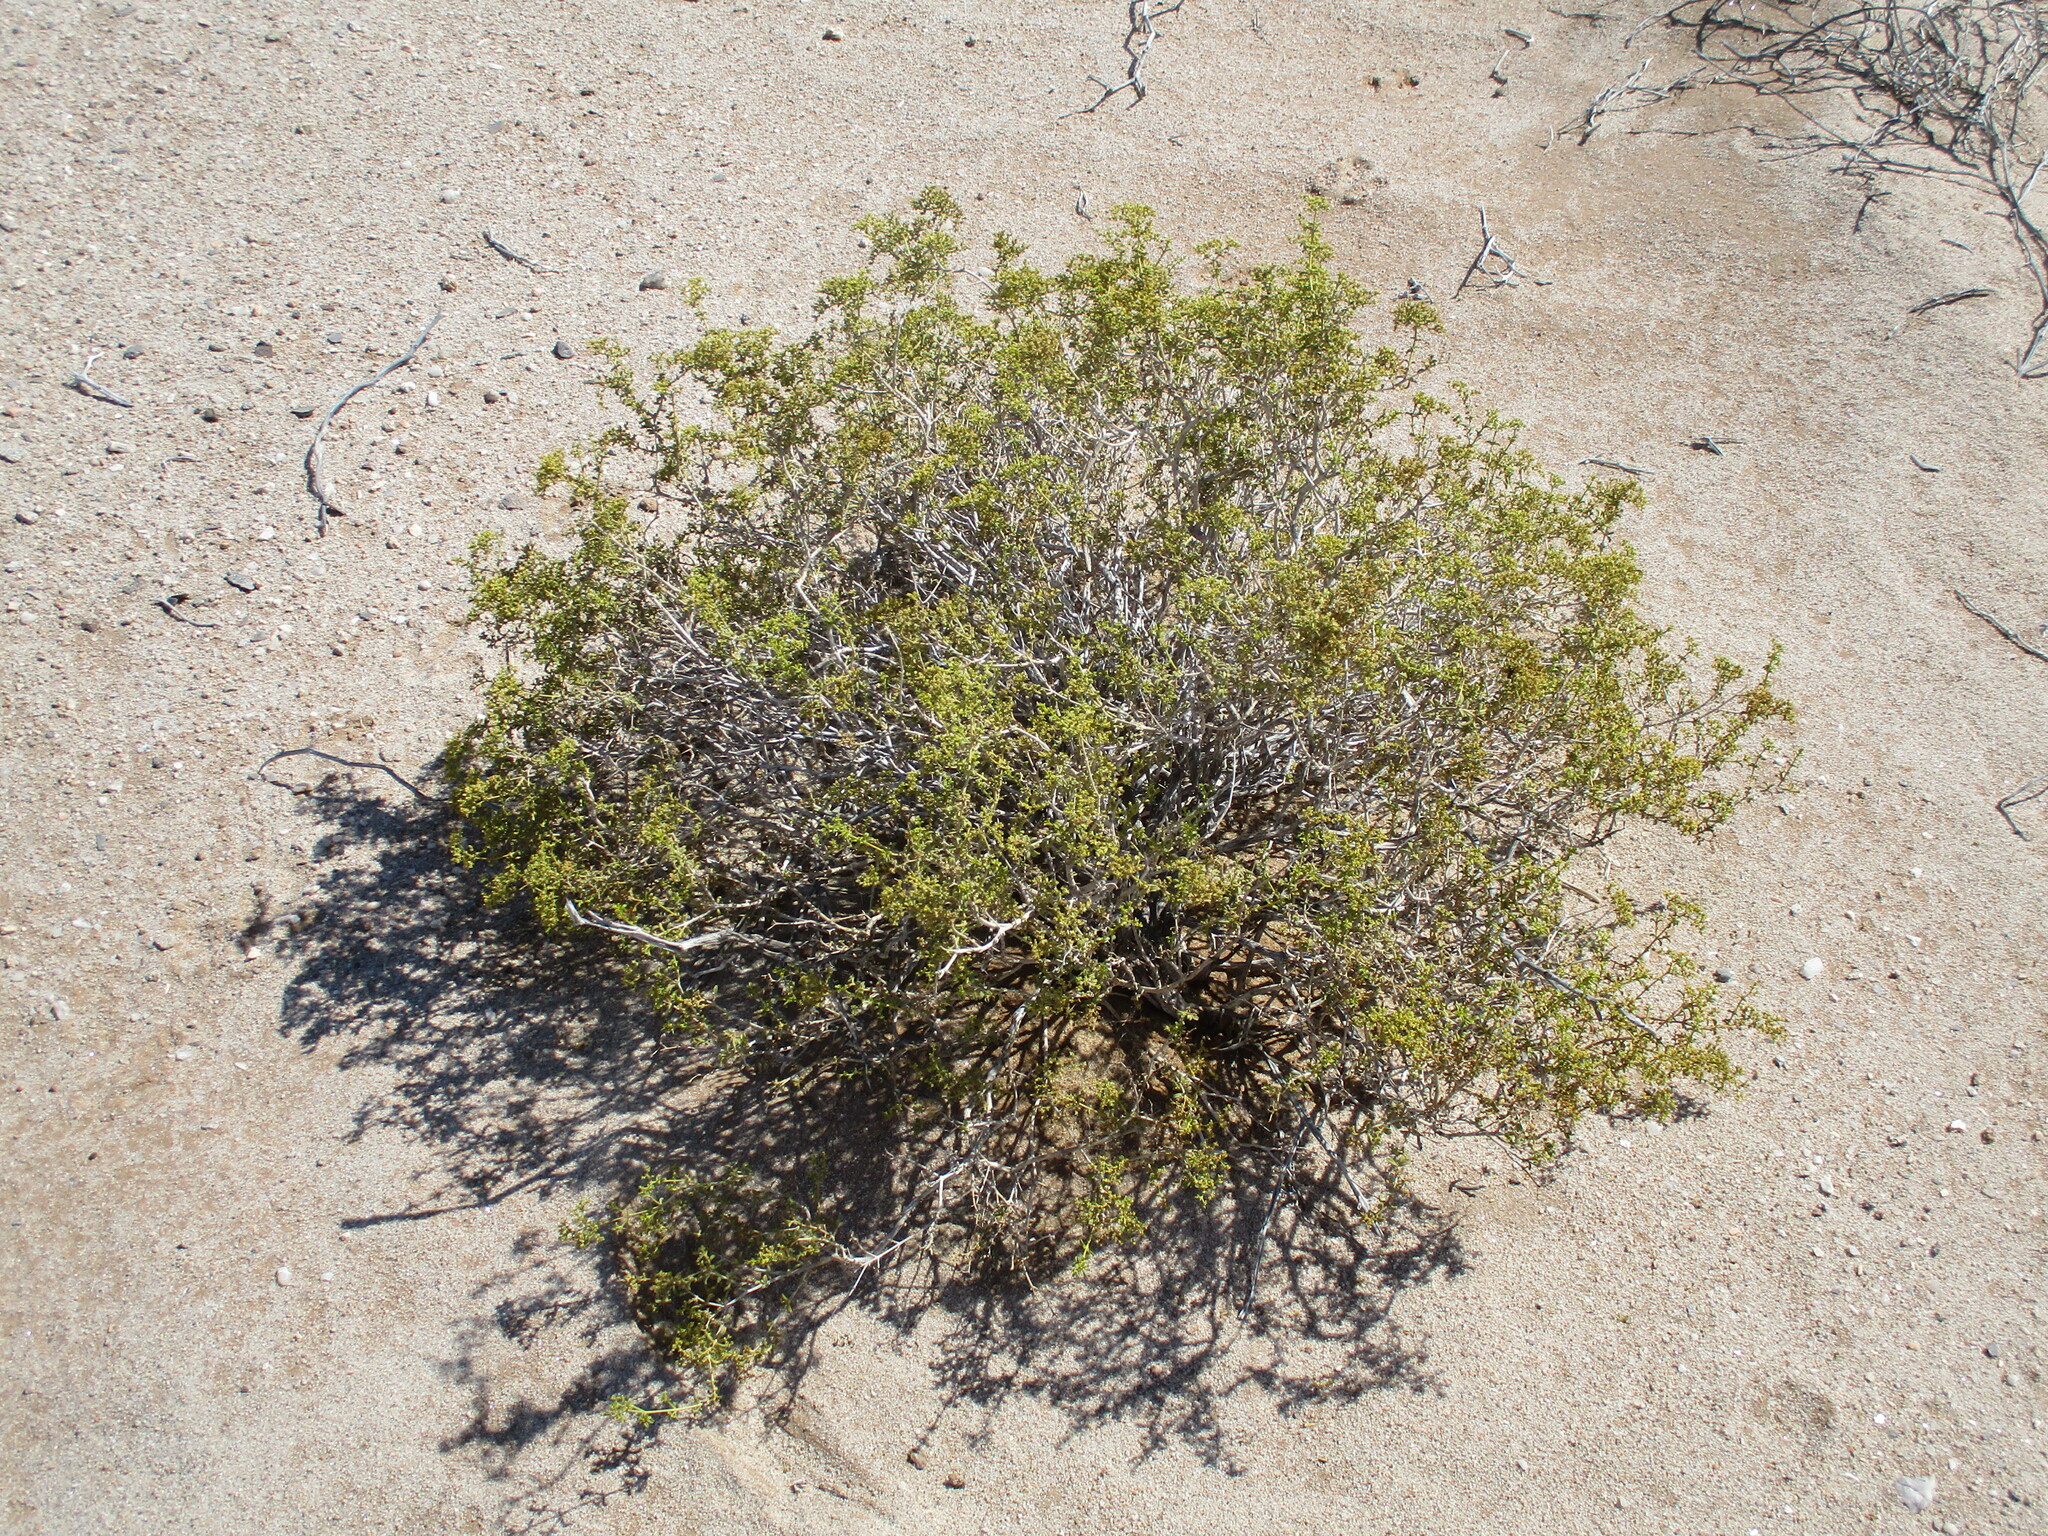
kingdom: Plantae
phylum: Tracheophyta
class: Magnoliopsida
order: Caryophyllales
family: Aizoaceae
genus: Aizoon
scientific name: Aizoon africanum
